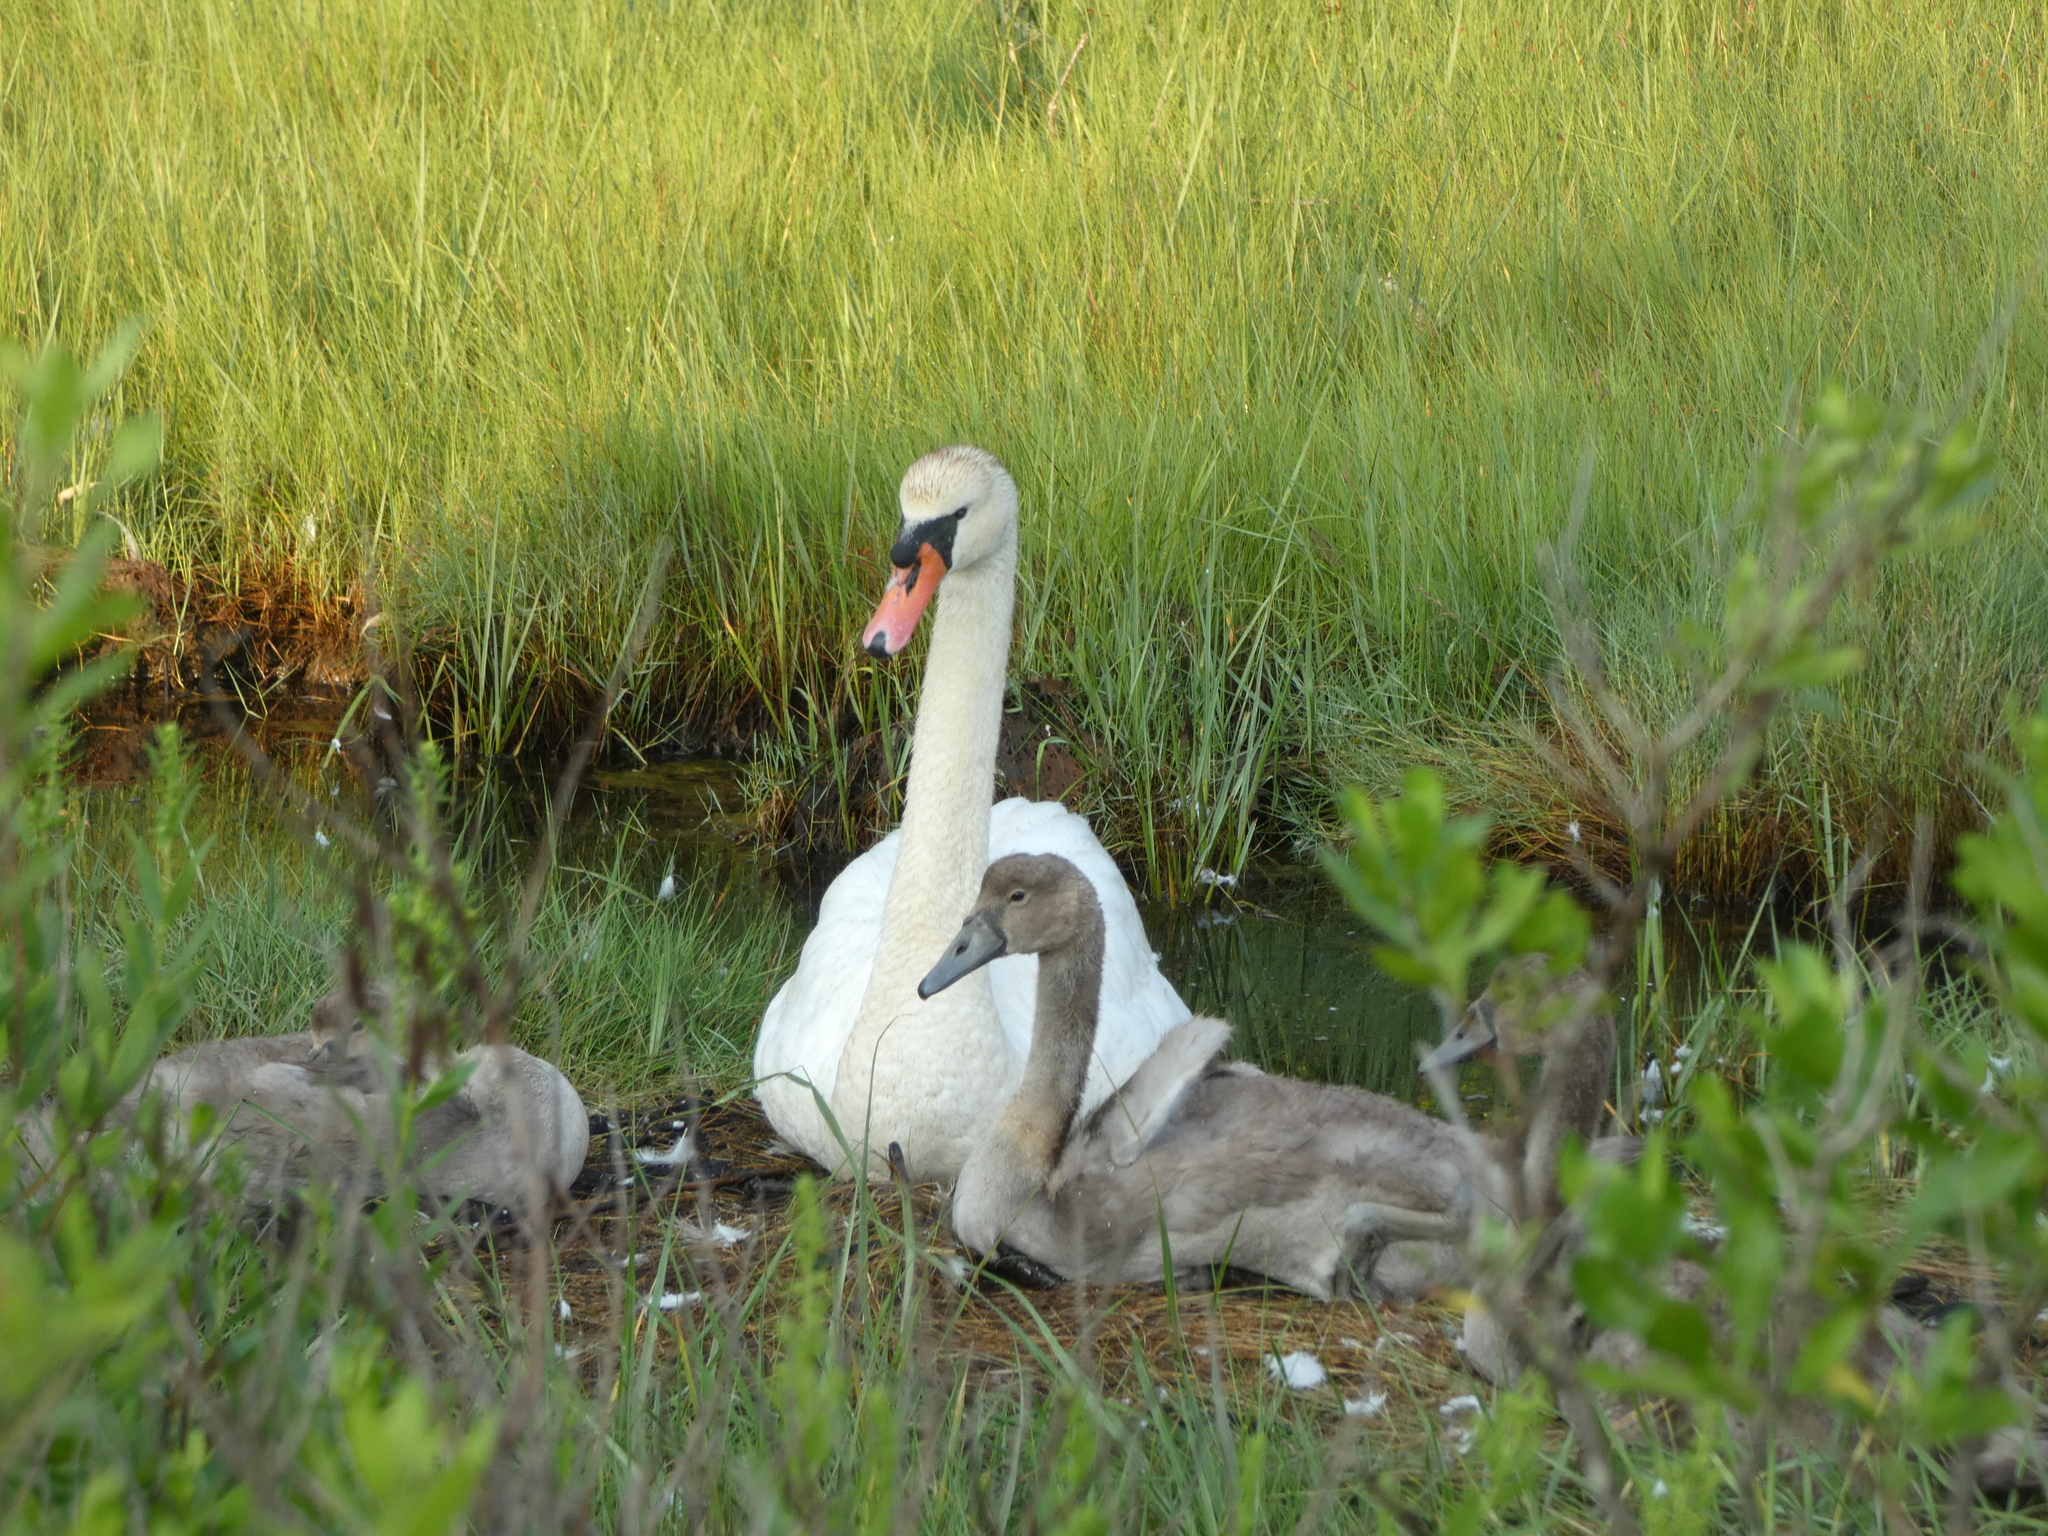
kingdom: Animalia
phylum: Chordata
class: Aves
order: Anseriformes
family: Anatidae
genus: Cygnus
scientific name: Cygnus olor
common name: Mute swan
